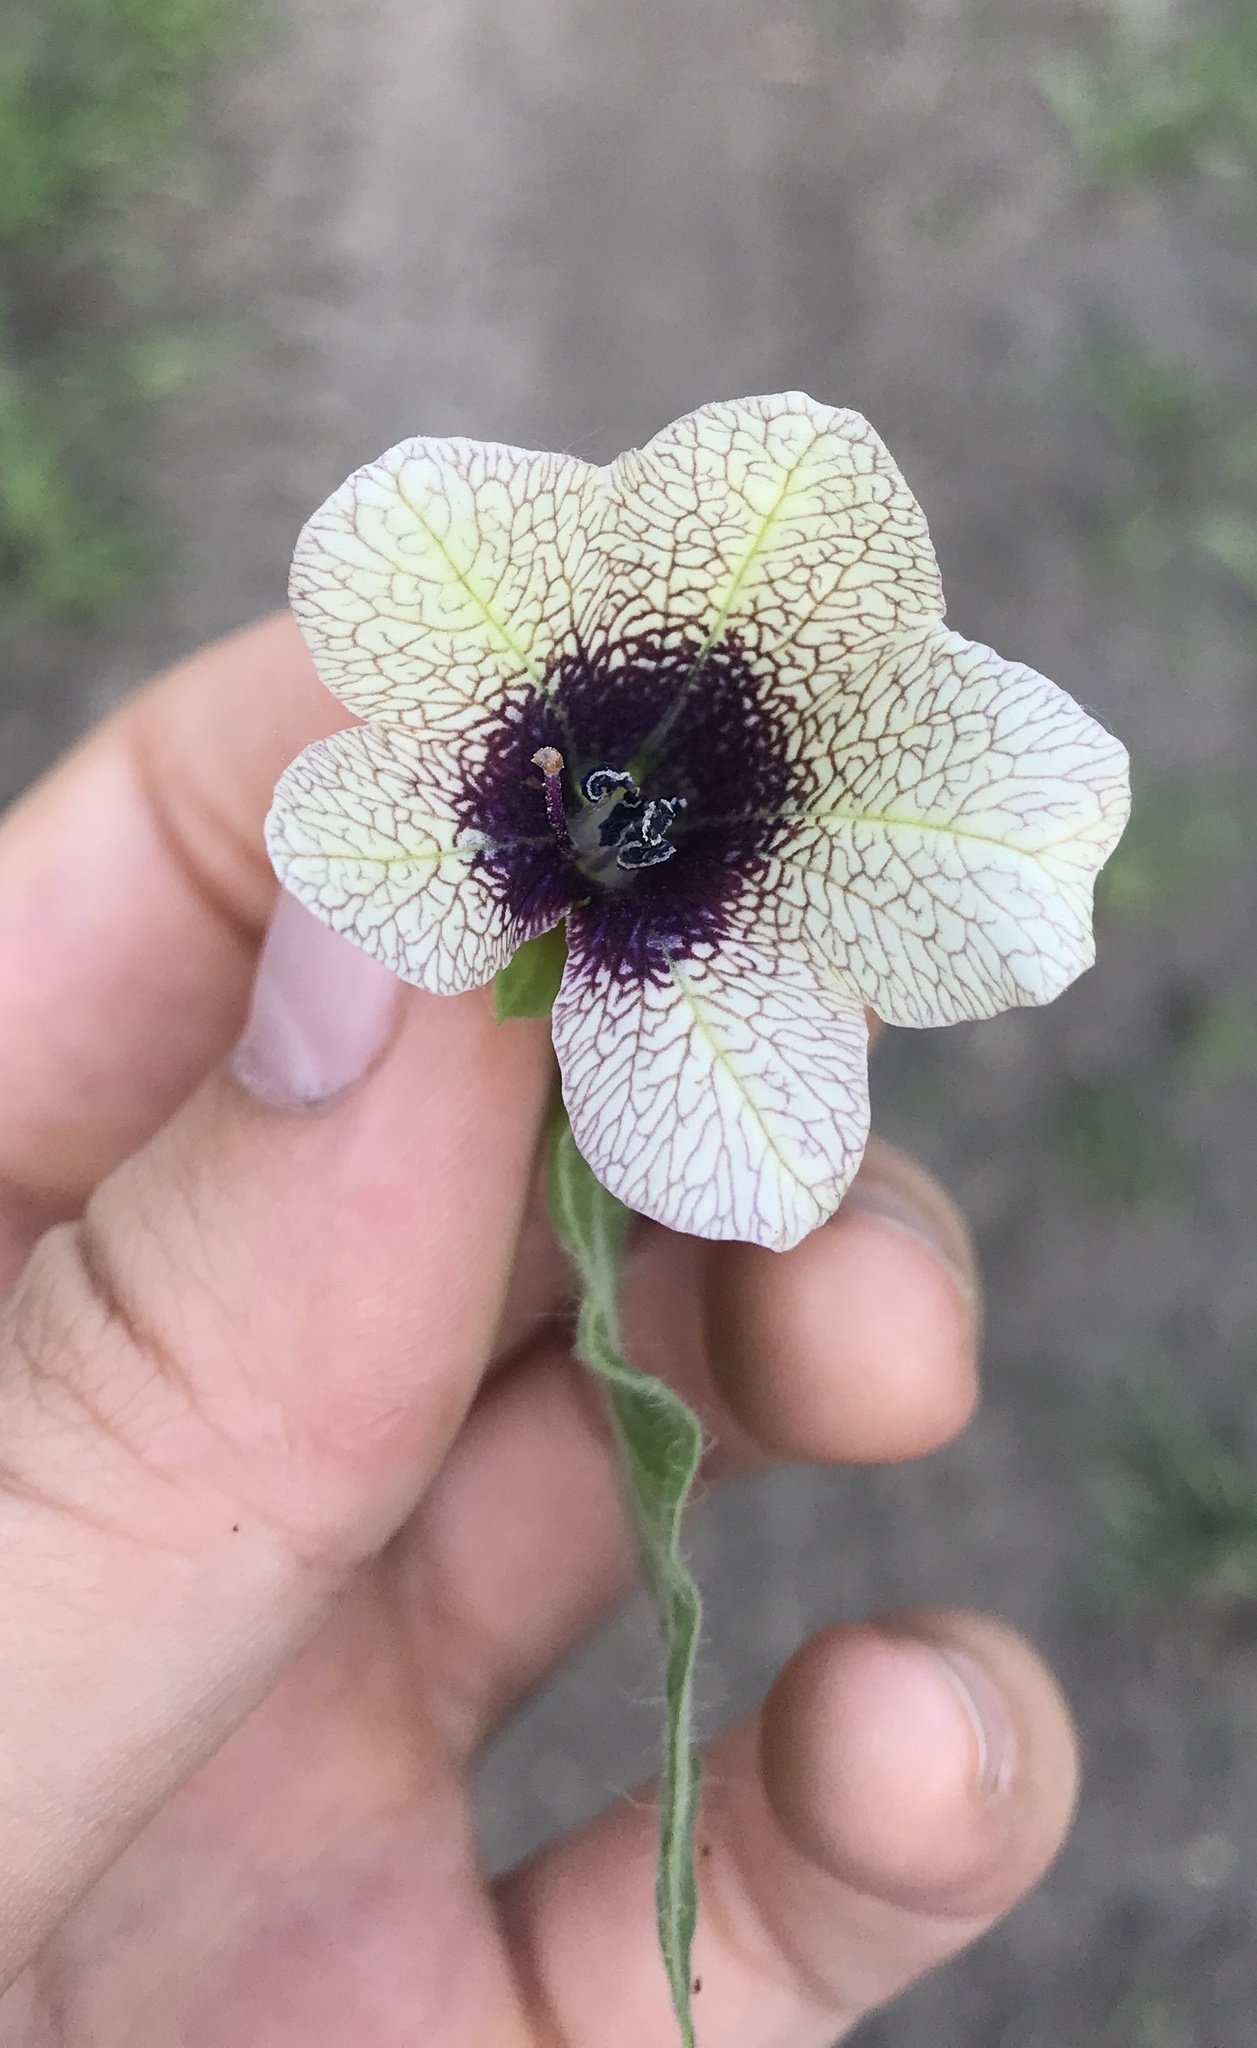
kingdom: Plantae
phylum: Tracheophyta
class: Magnoliopsida
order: Solanales
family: Solanaceae
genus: Hyoscyamus
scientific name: Hyoscyamus niger
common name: Henbane
